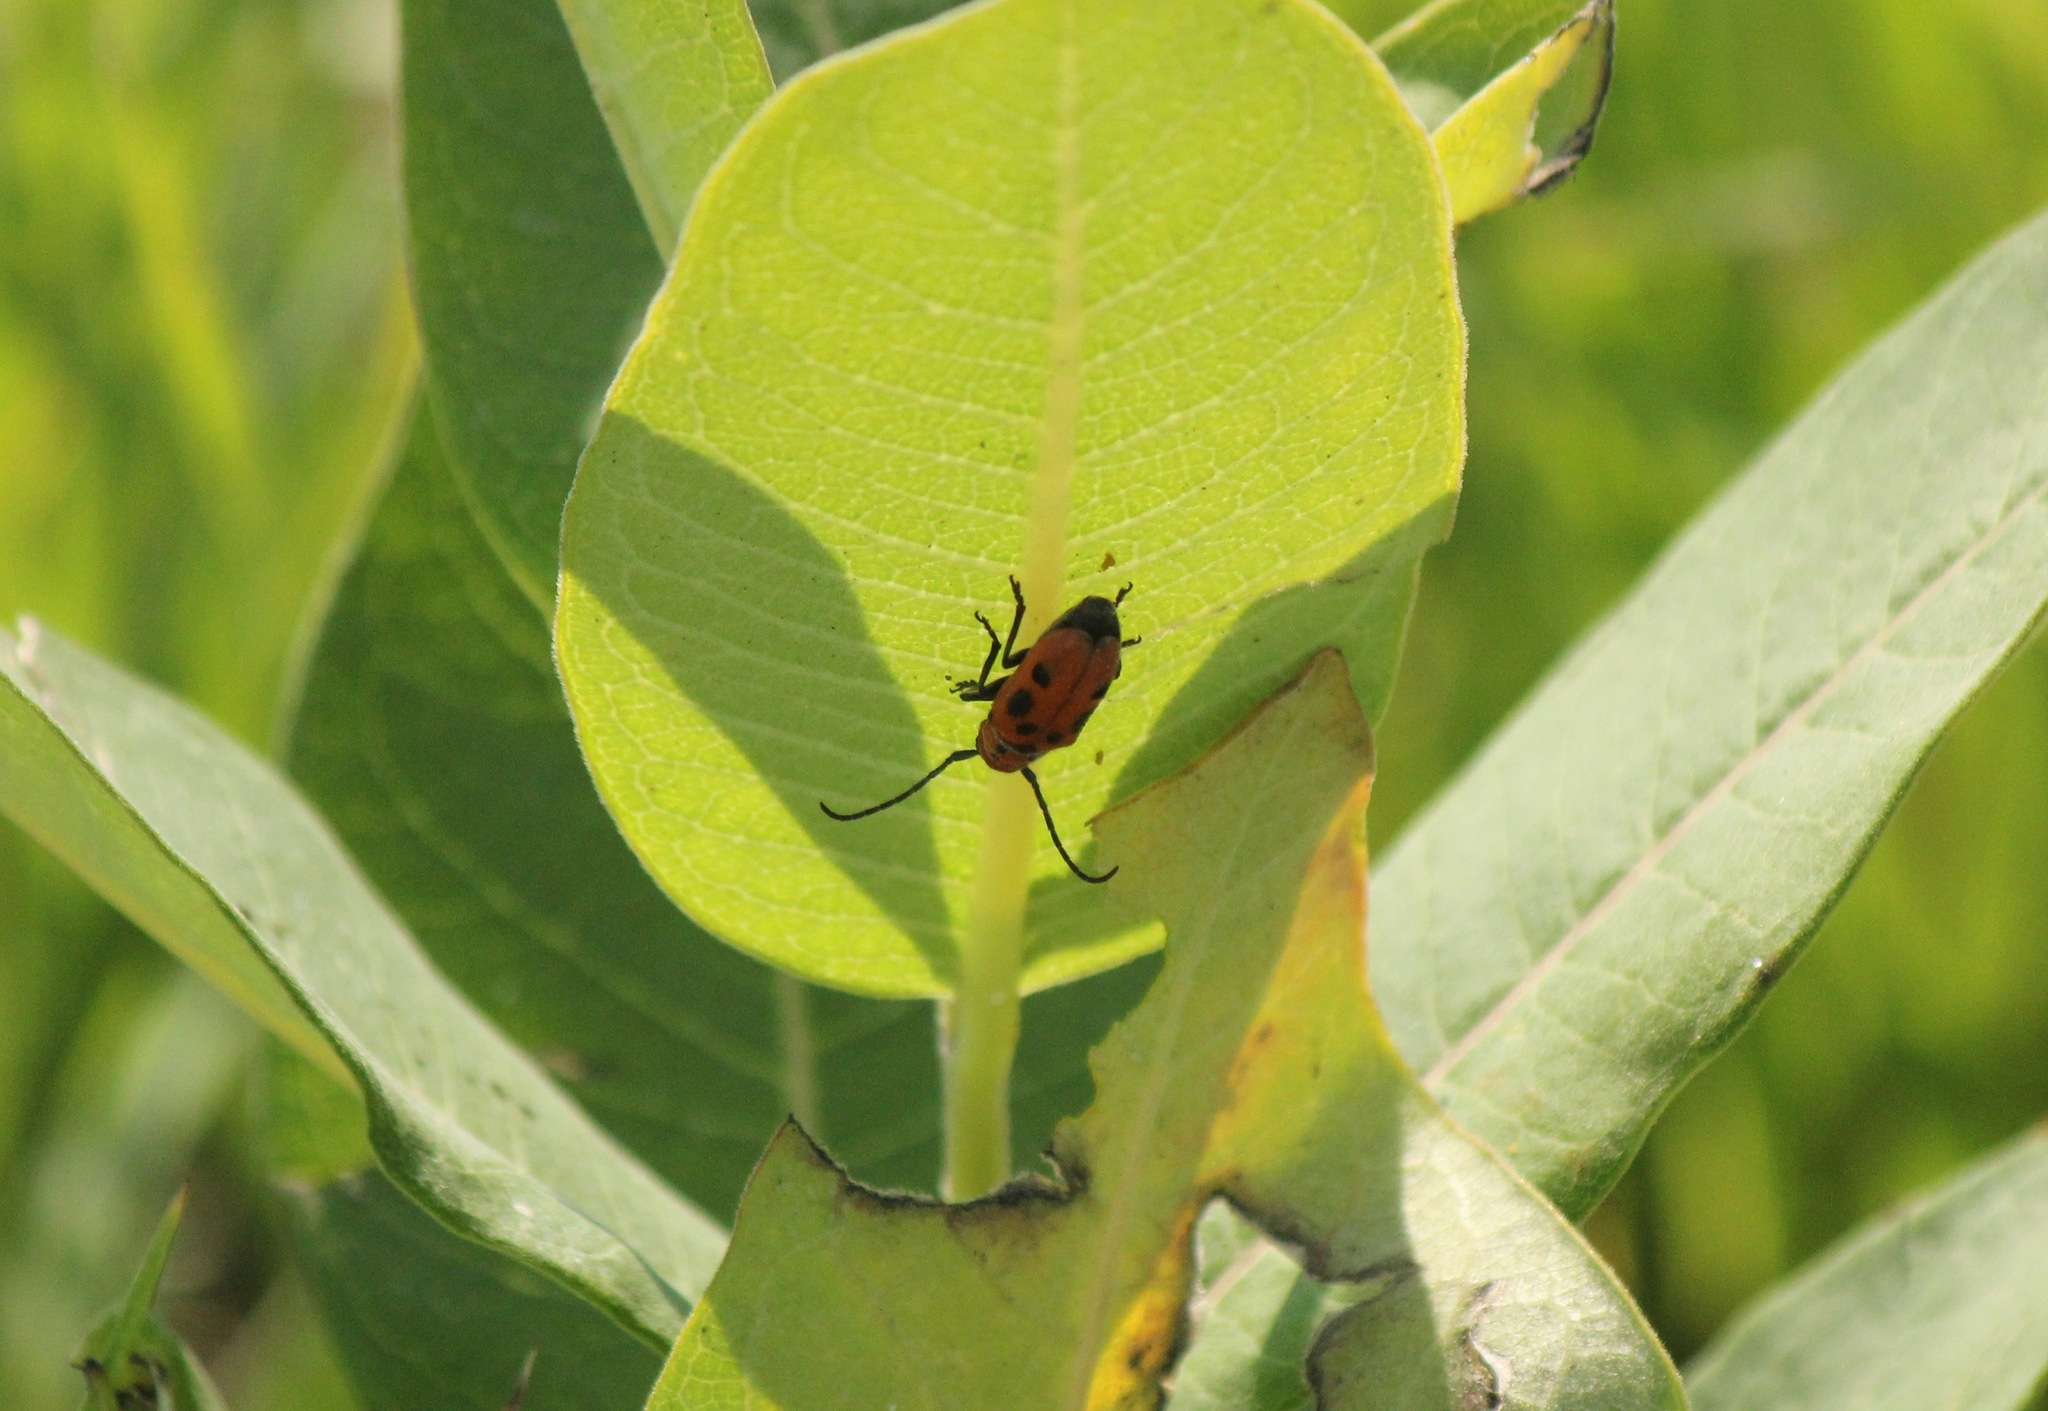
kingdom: Animalia
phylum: Arthropoda
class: Insecta
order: Coleoptera
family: Cerambycidae
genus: Tetraopes
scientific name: Tetraopes tetrophthalmus
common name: Red milkweed beetle
